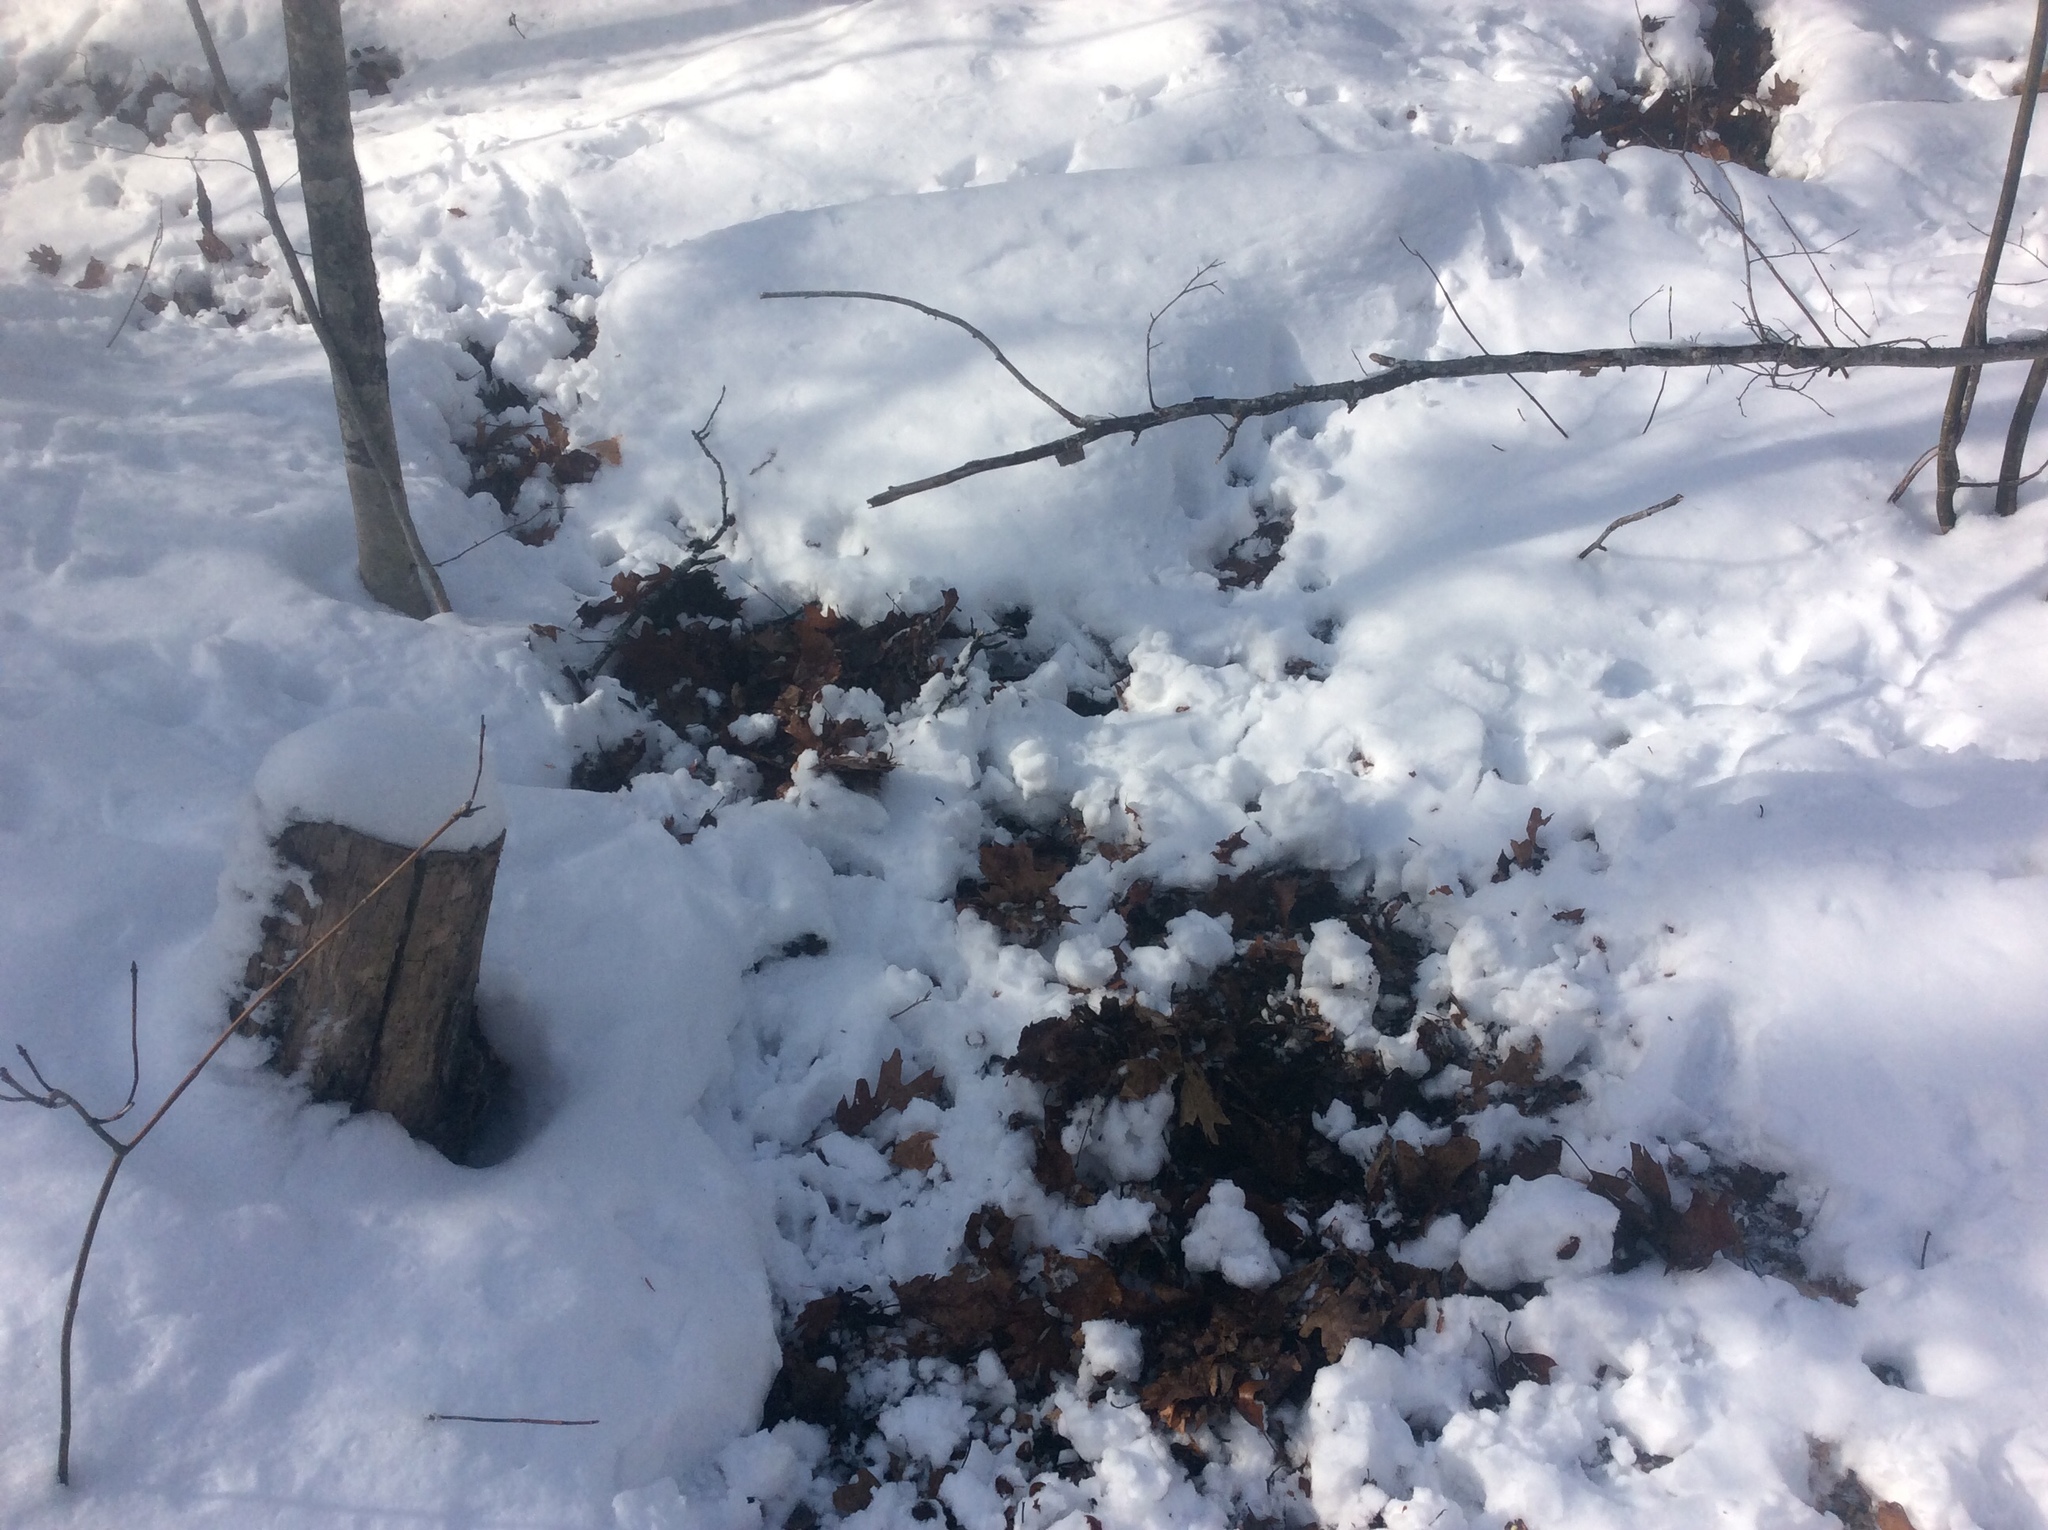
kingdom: Animalia
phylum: Chordata
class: Mammalia
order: Artiodactyla
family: Cervidae
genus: Odocoileus
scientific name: Odocoileus virginianus
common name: White-tailed deer
